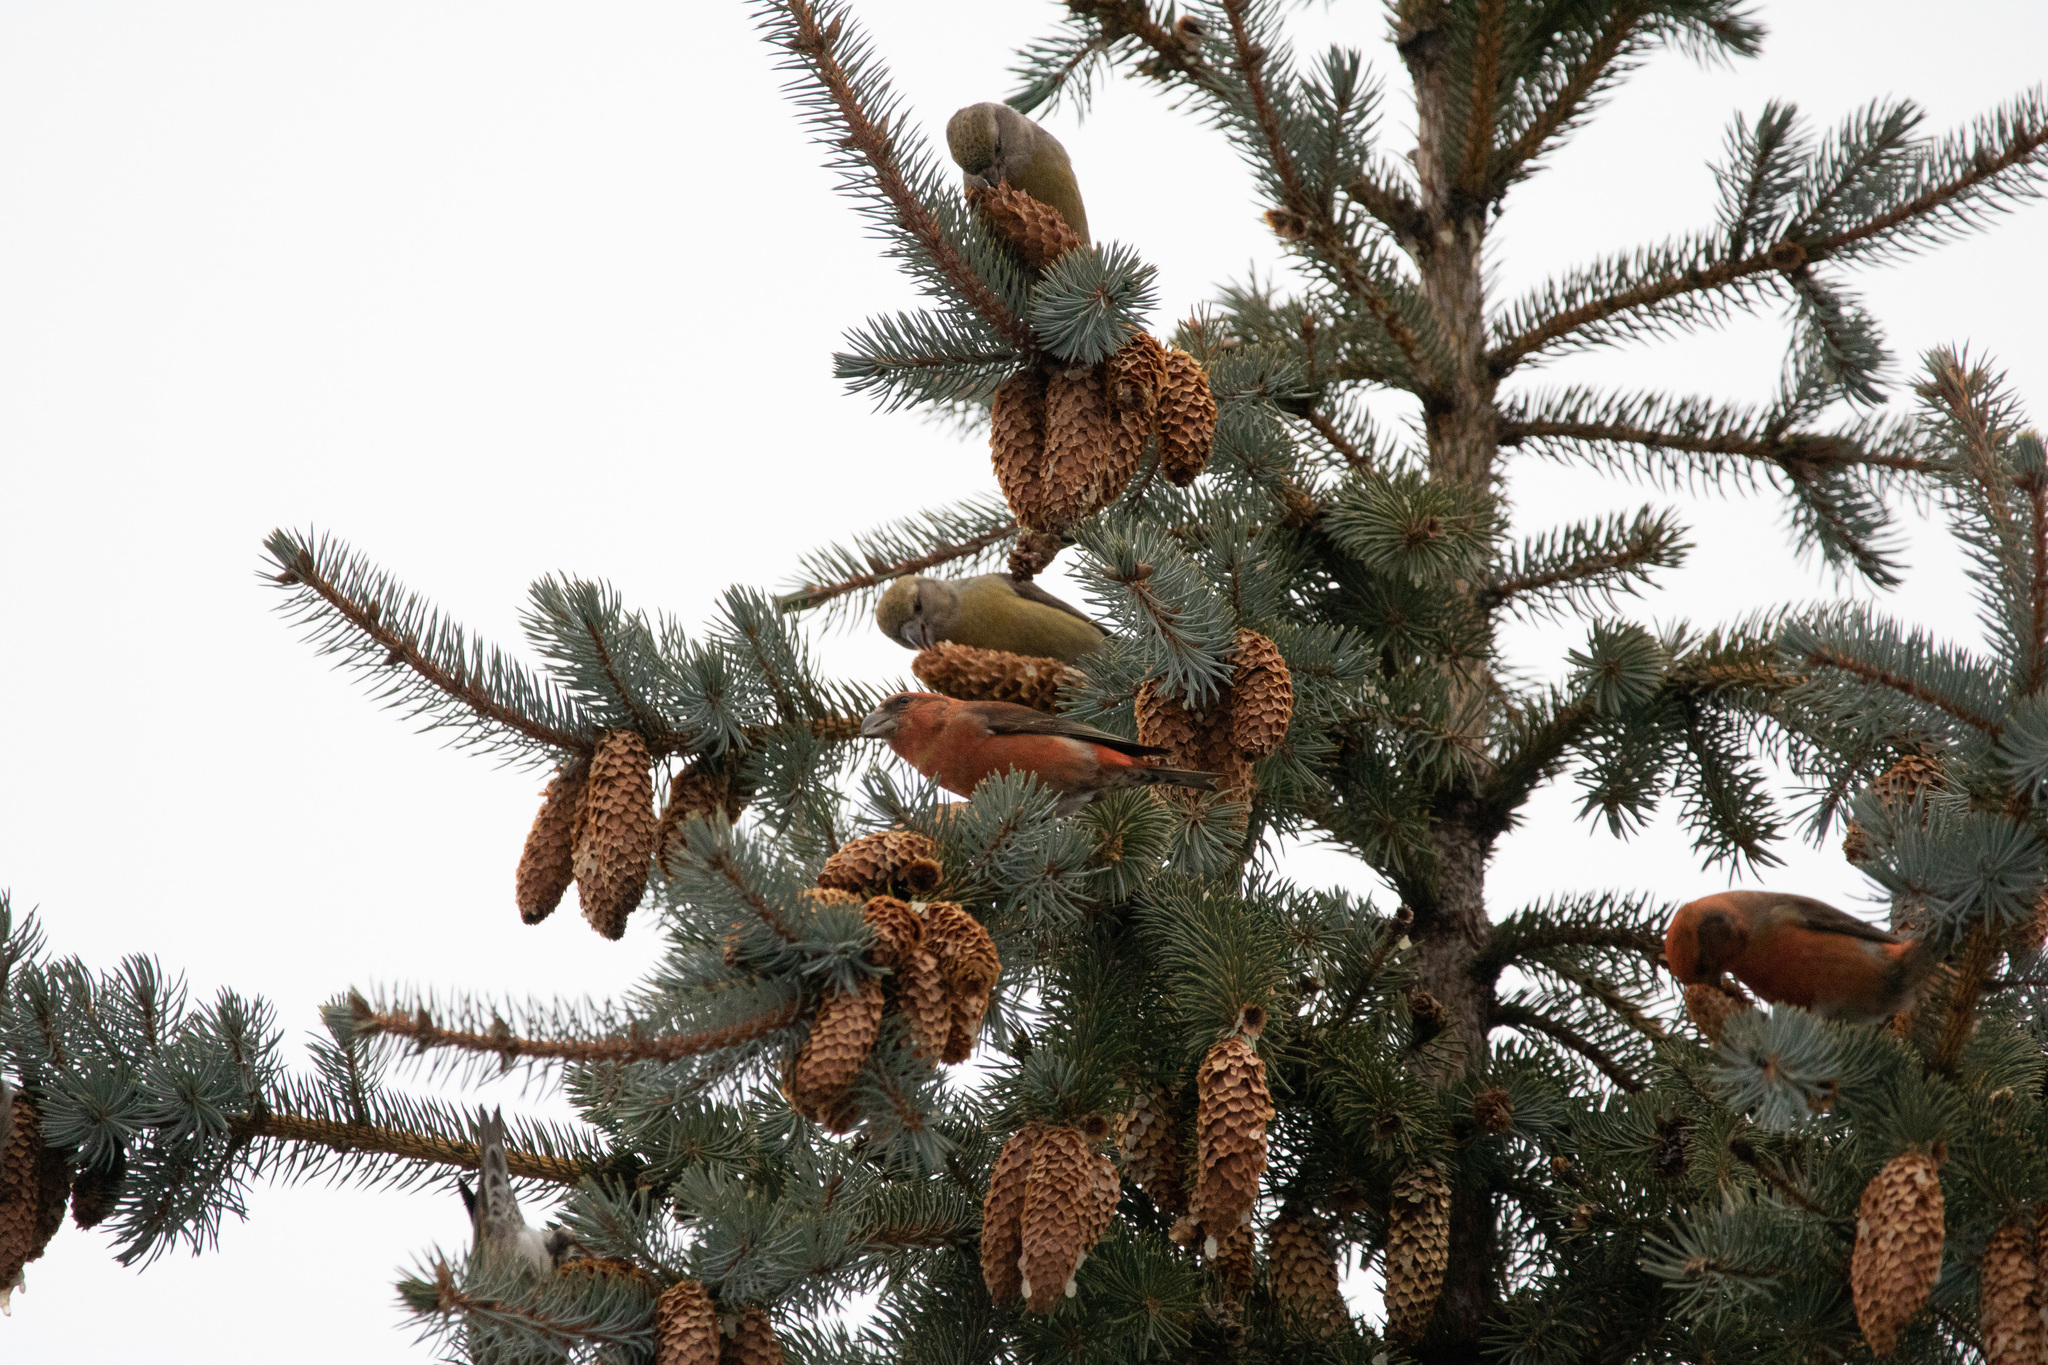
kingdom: Animalia
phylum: Chordata
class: Aves
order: Passeriformes
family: Fringillidae
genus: Loxia
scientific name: Loxia curvirostra
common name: Red crossbill
